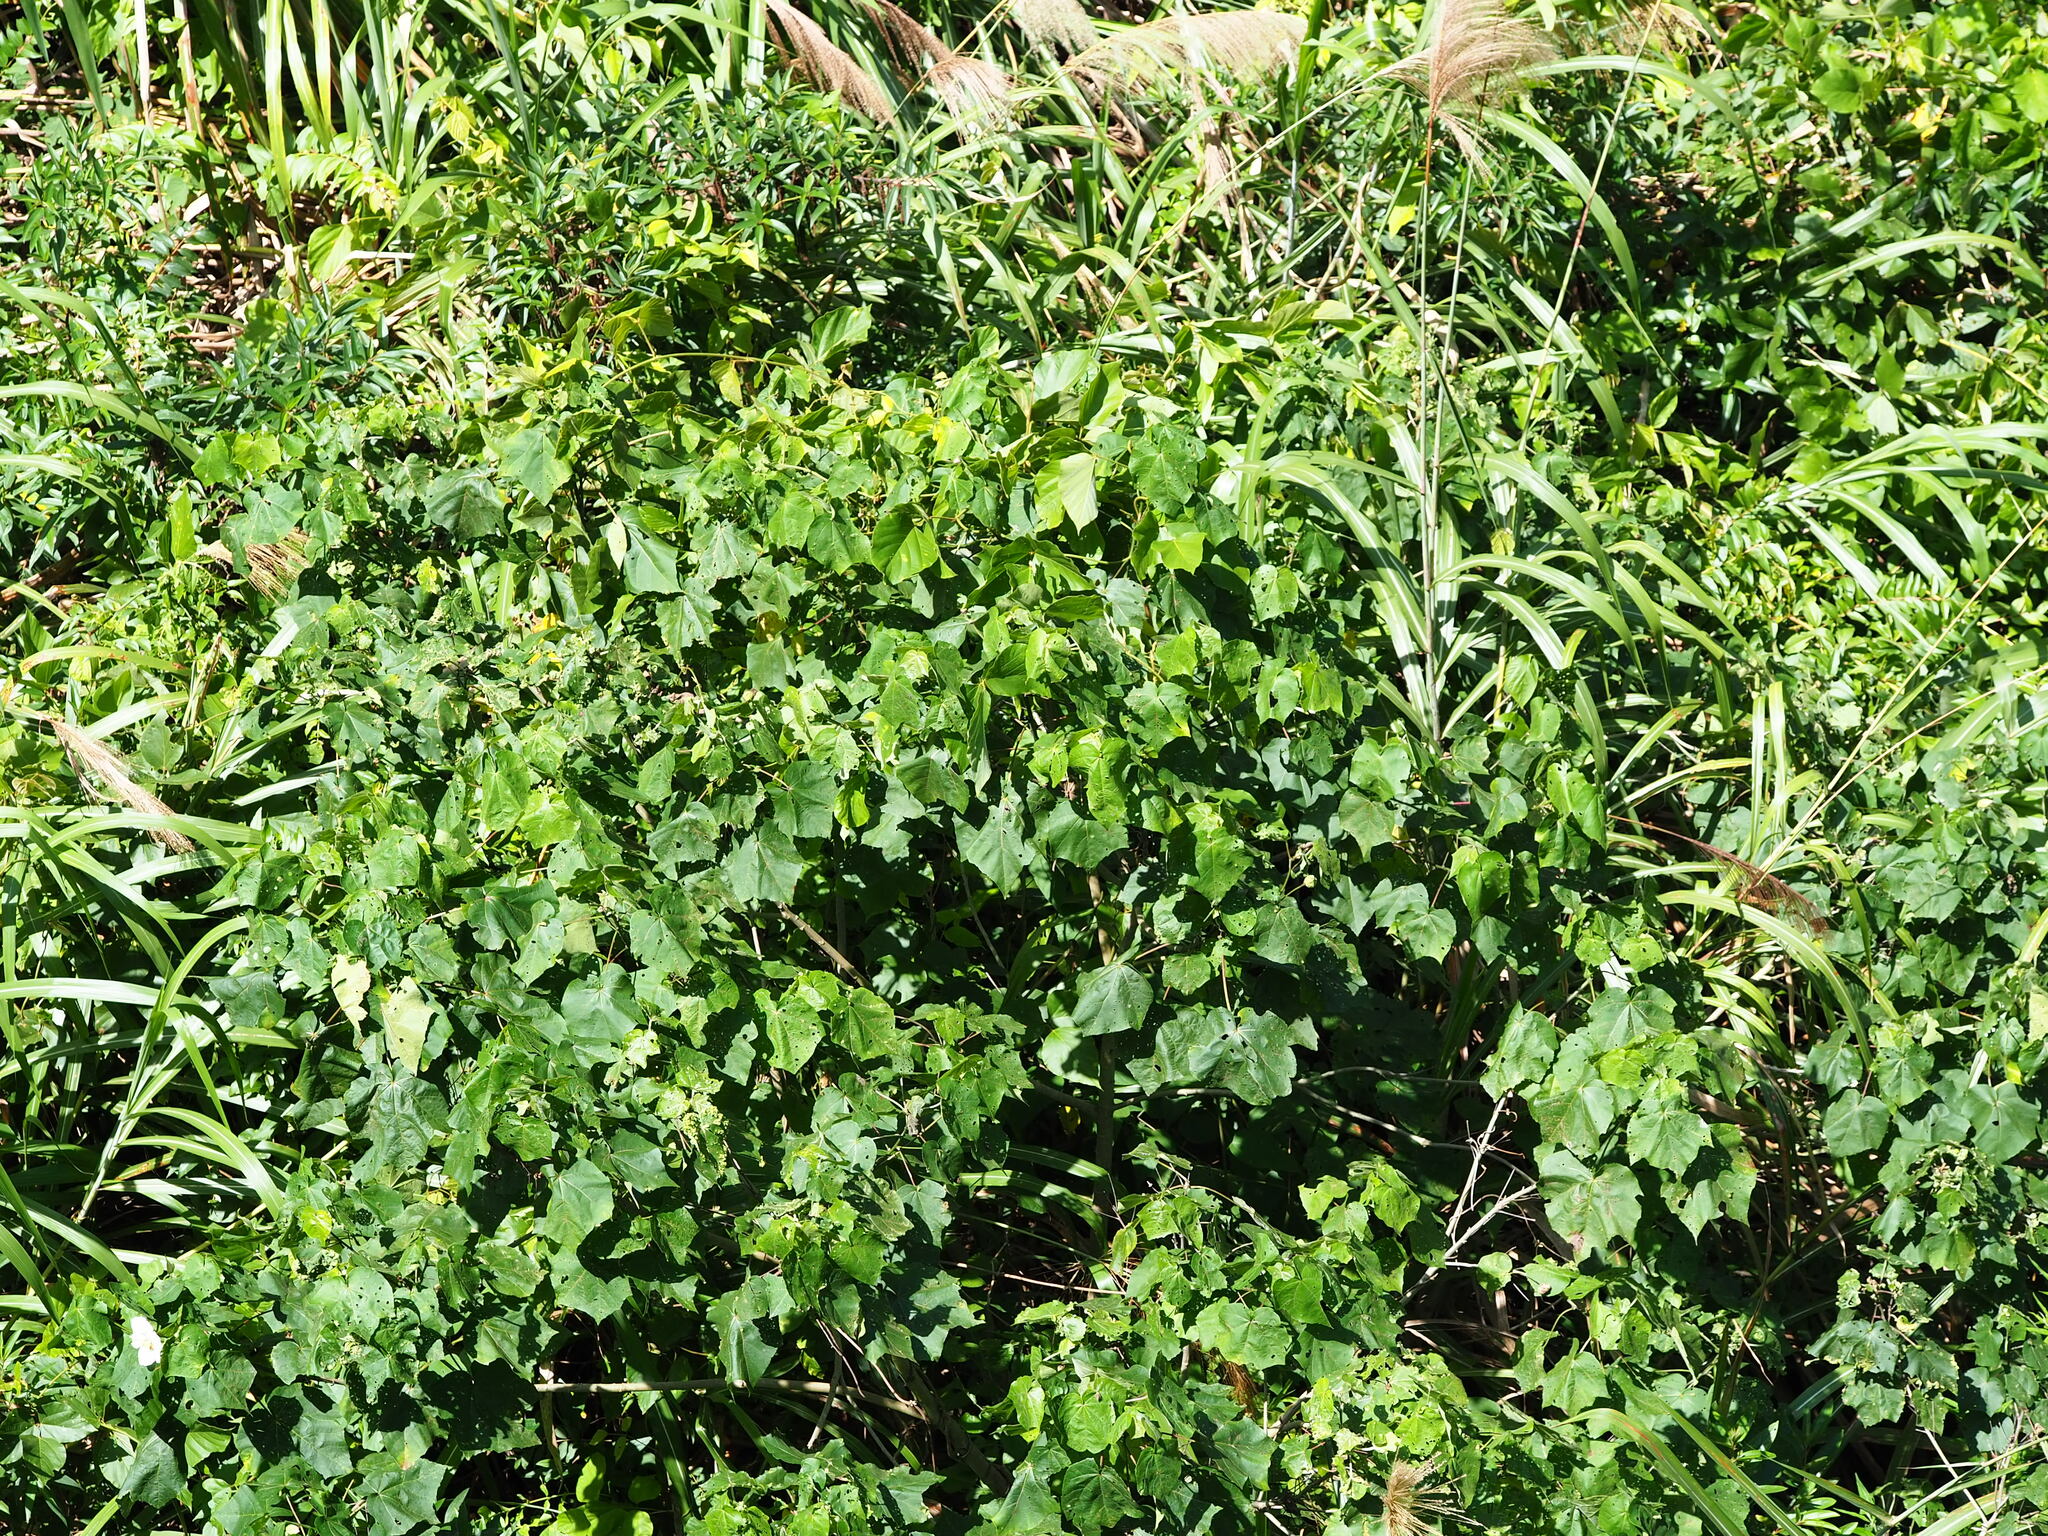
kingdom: Plantae
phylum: Tracheophyta
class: Magnoliopsida
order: Malvales
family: Malvaceae
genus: Hibiscus
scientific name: Hibiscus taiwanensis
